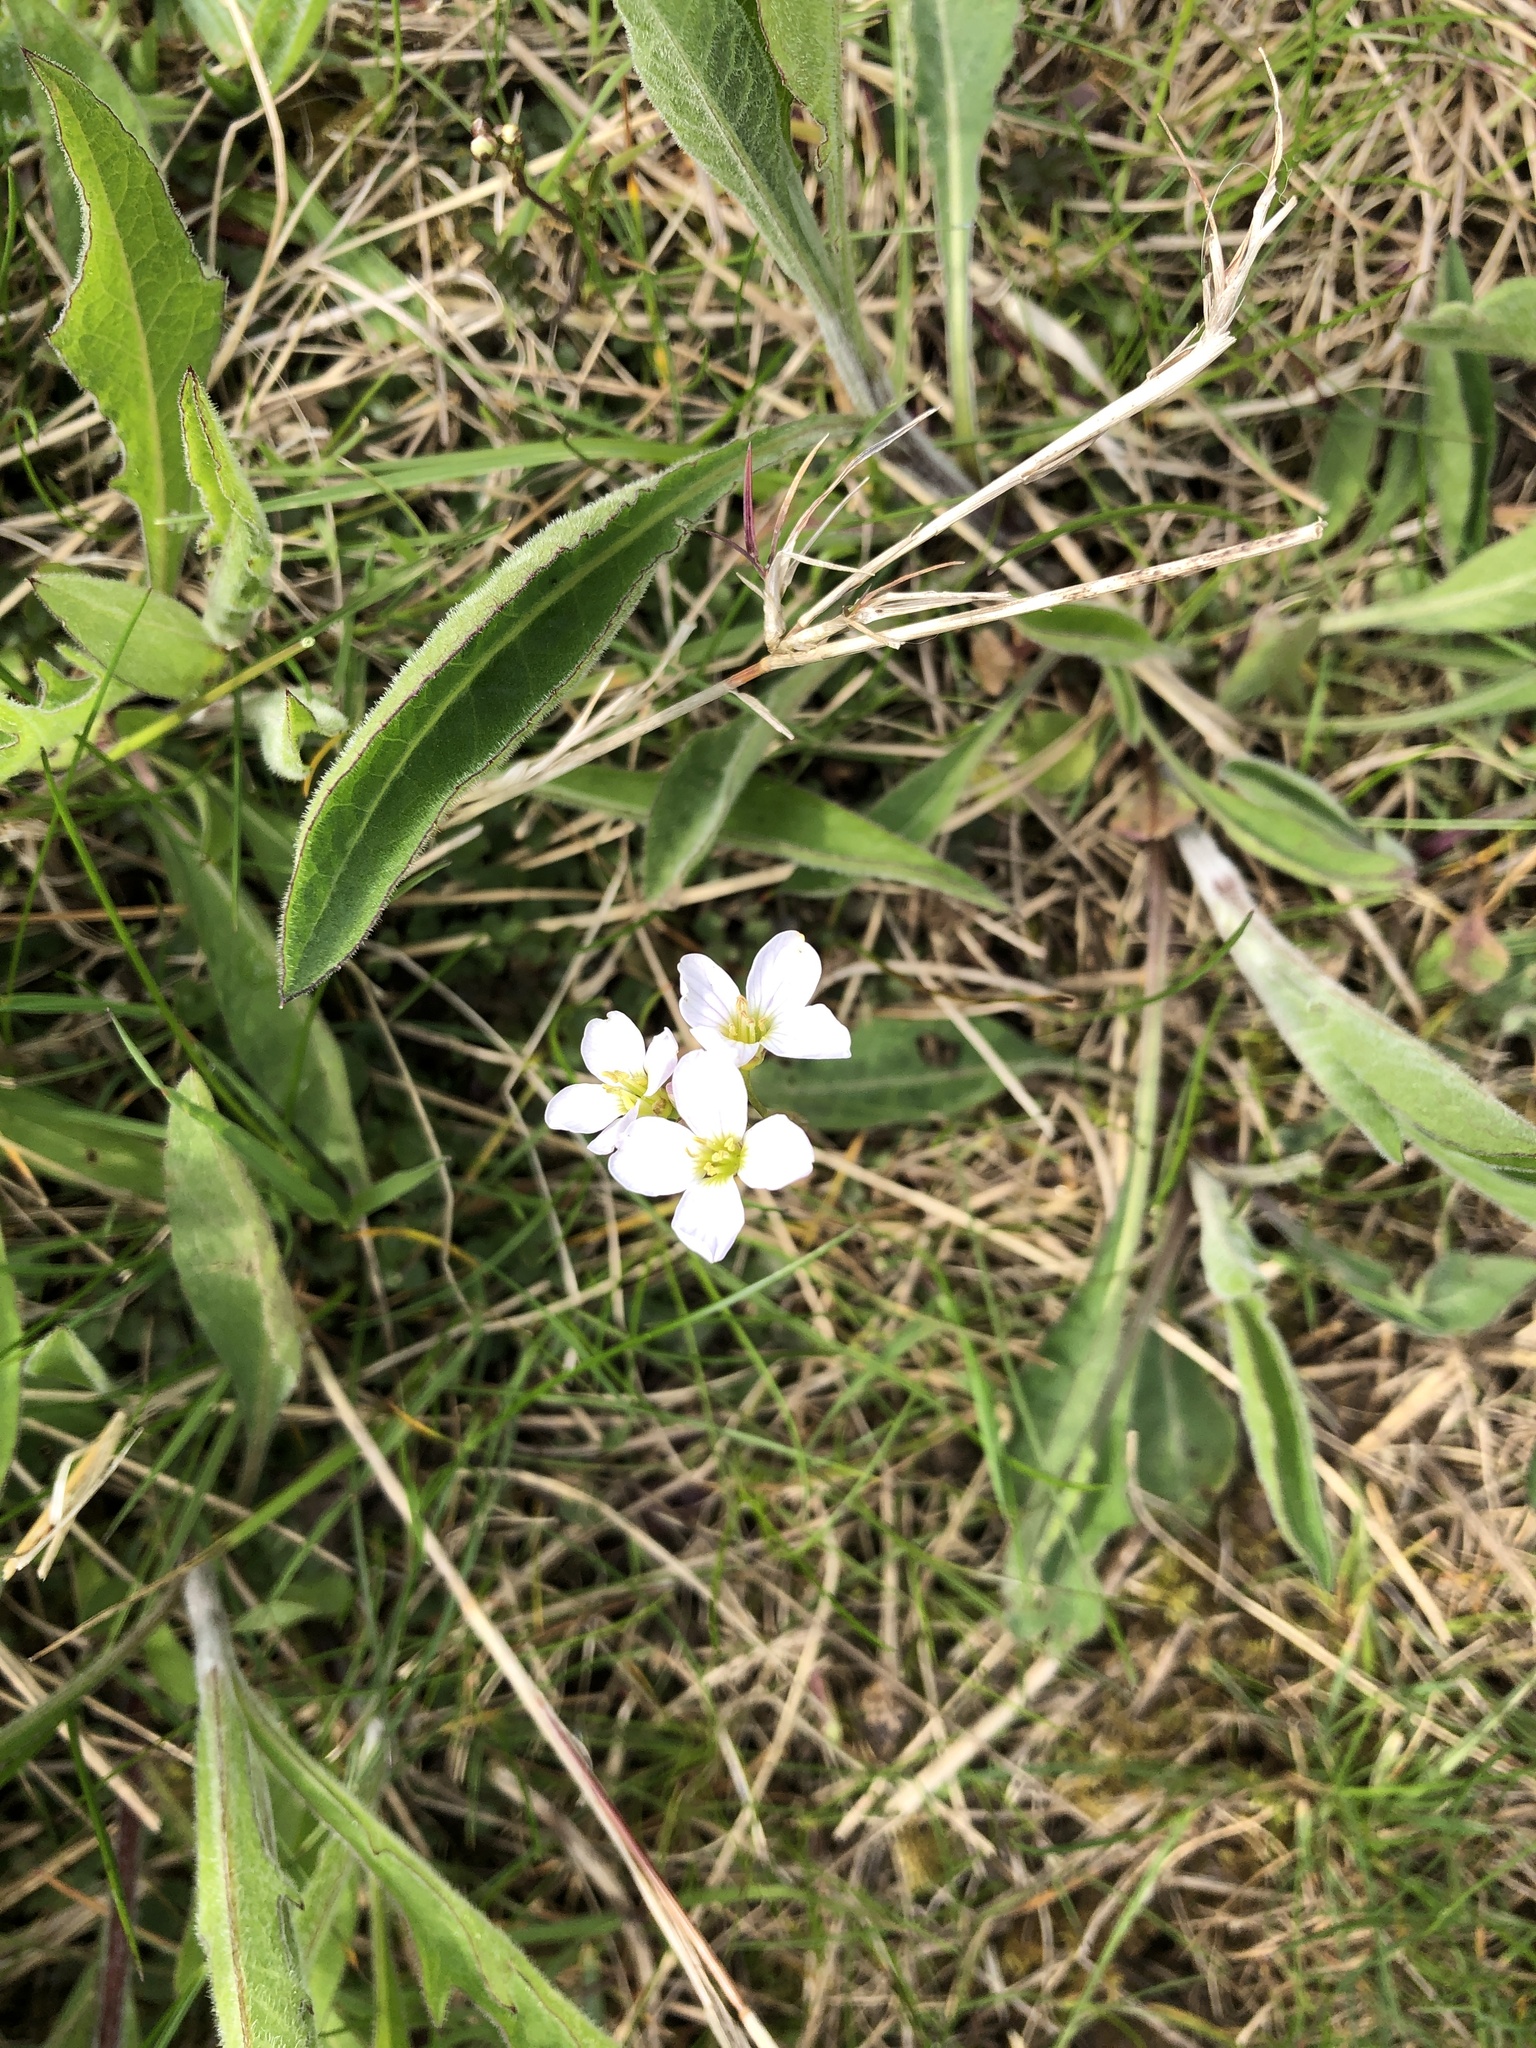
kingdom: Plantae
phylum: Tracheophyta
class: Magnoliopsida
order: Brassicales
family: Brassicaceae
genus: Cardamine
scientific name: Cardamine pratensis
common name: Cuckoo flower
